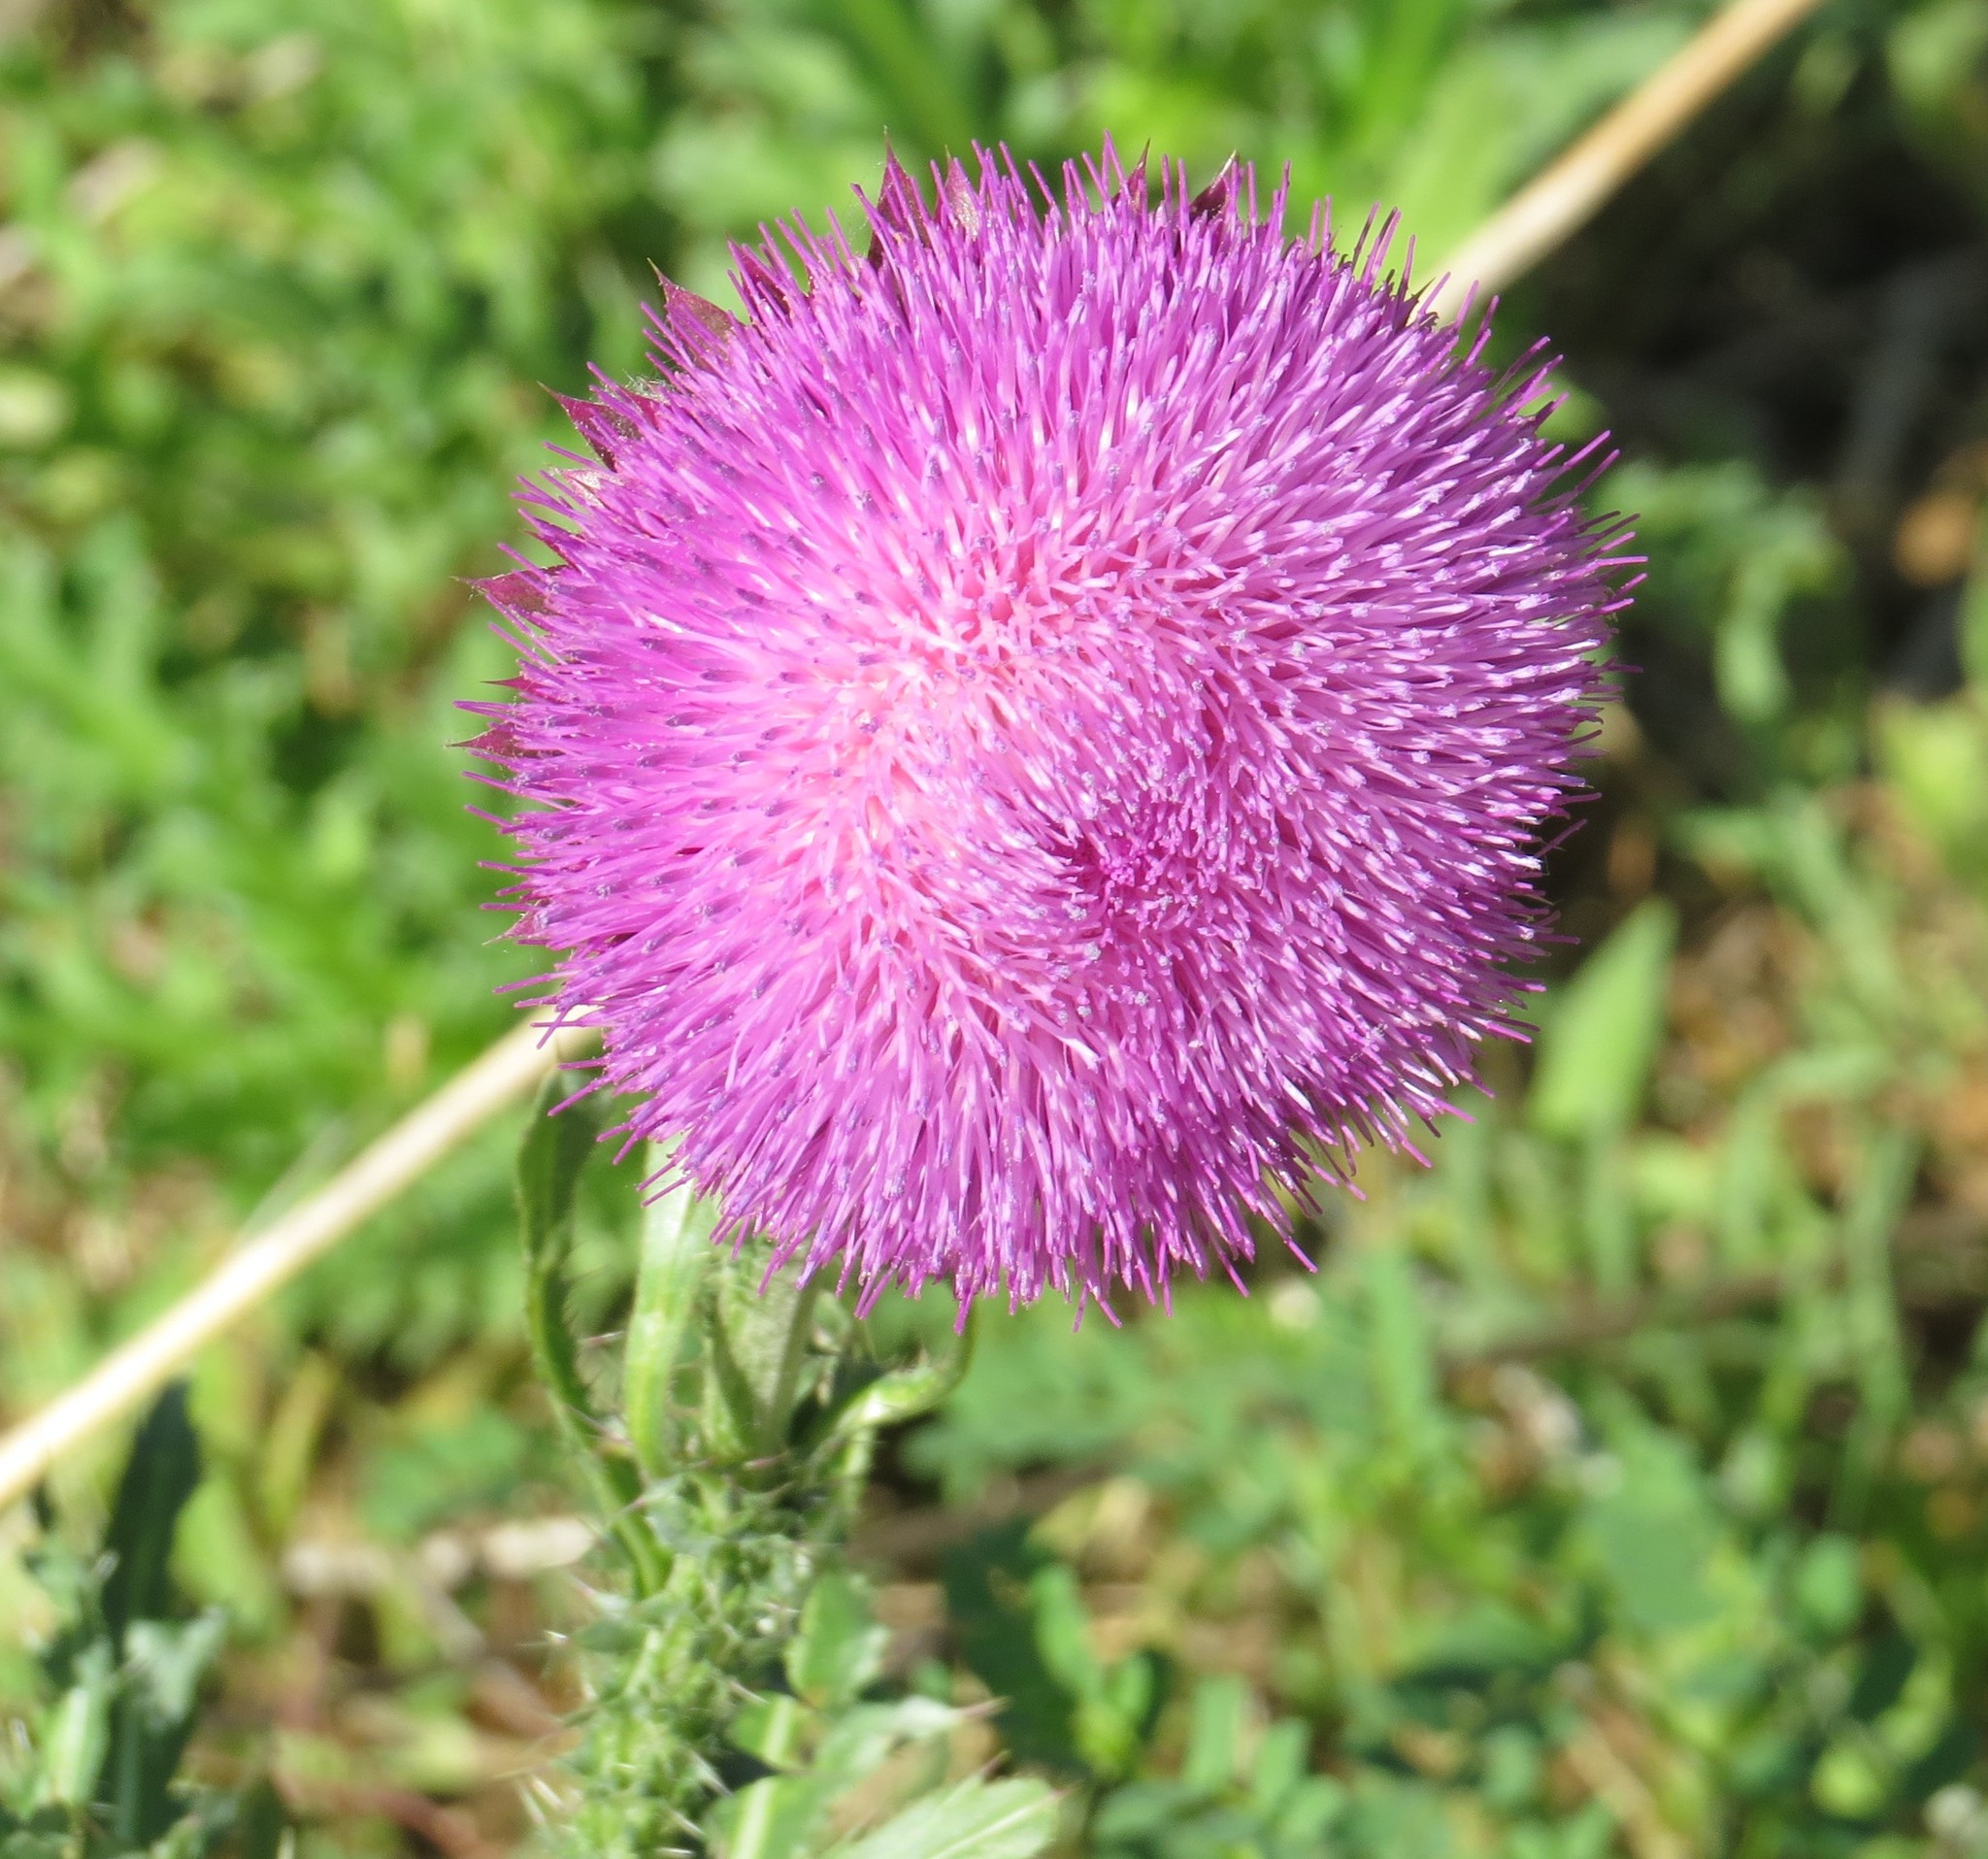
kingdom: Plantae
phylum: Tracheophyta
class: Magnoliopsida
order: Asterales
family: Asteraceae
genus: Carduus
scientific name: Carduus nutans
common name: Musk thistle
